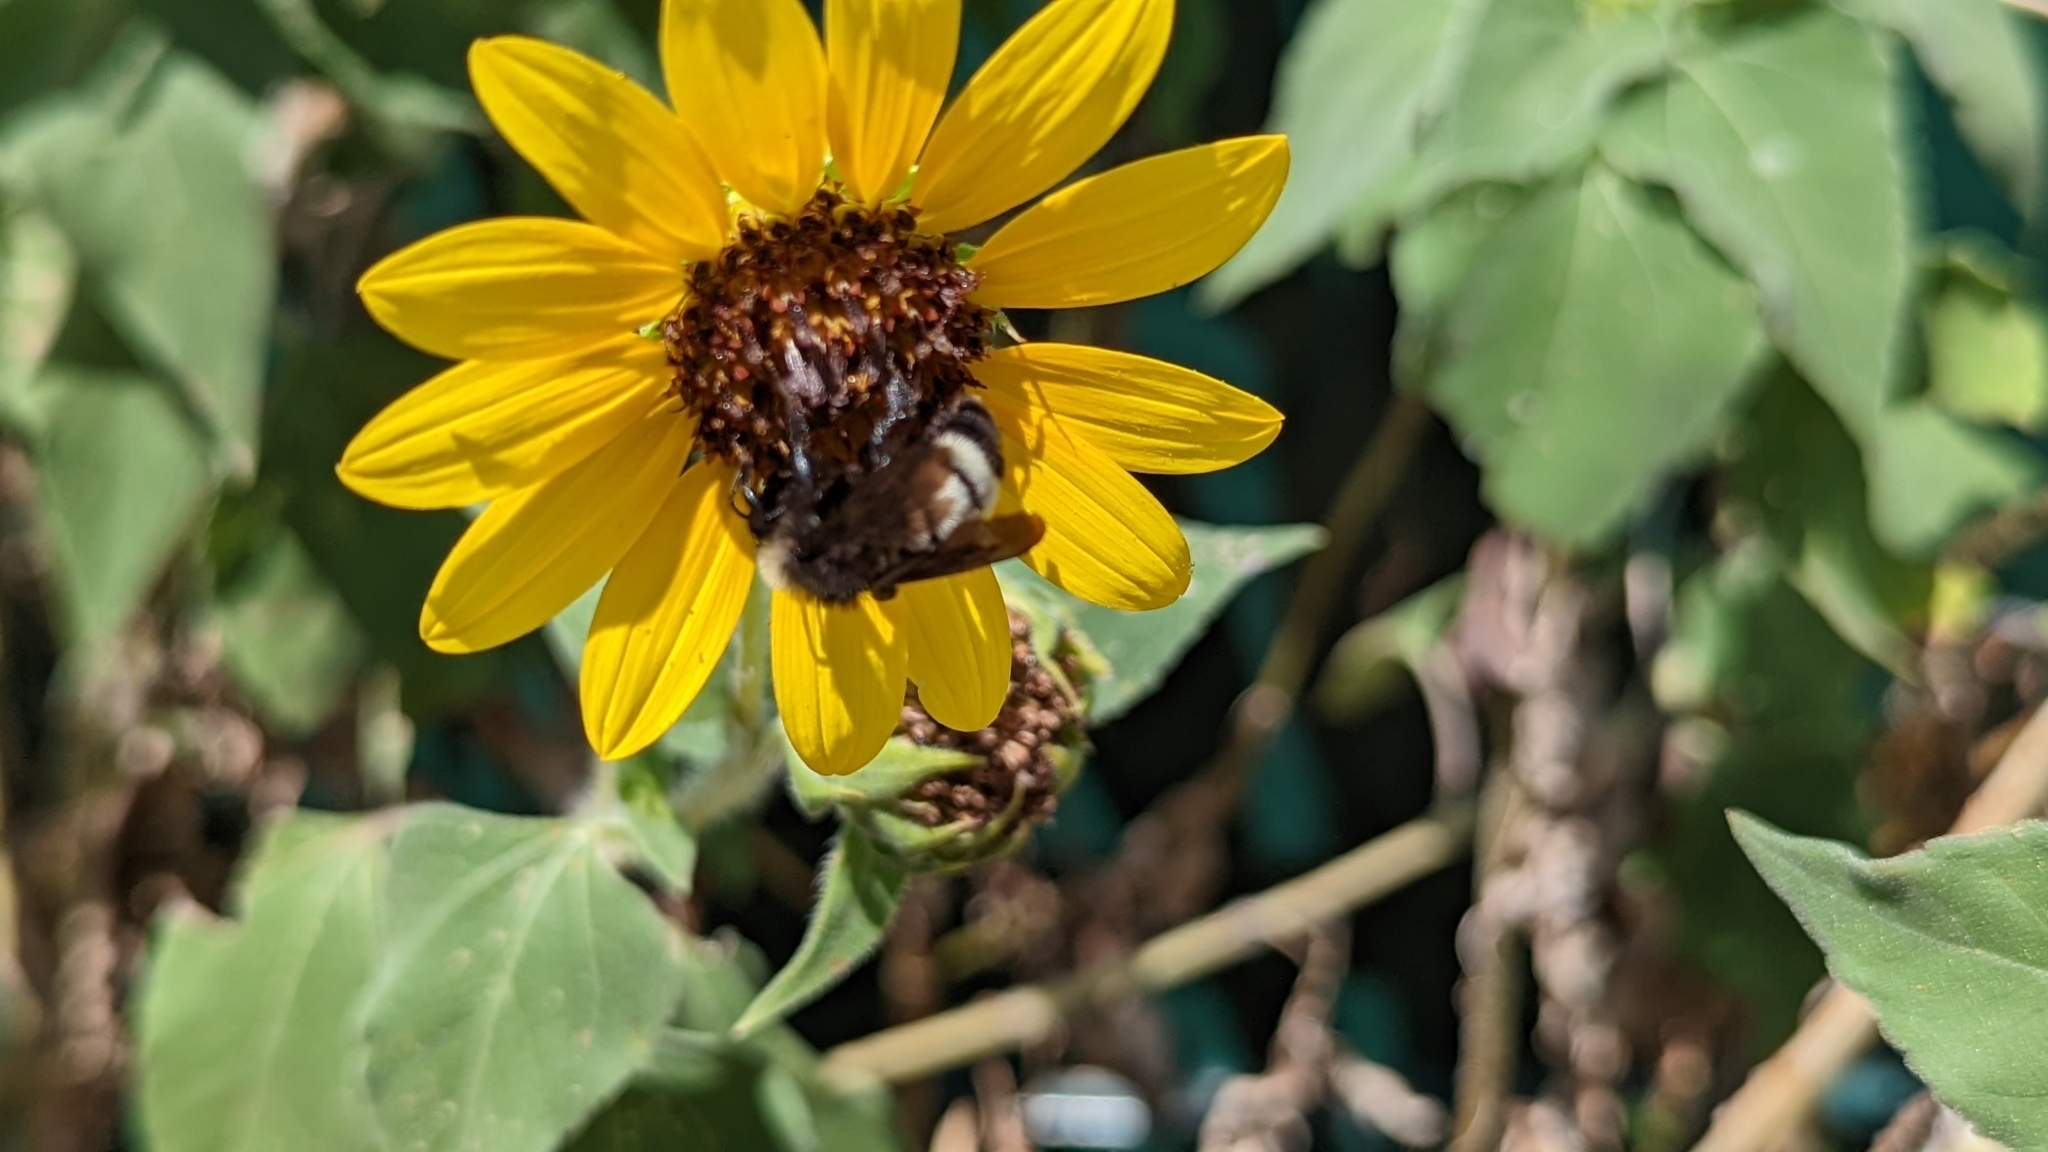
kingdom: Animalia
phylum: Arthropoda
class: Insecta
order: Hymenoptera
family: Apidae
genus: Bombus
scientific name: Bombus pensylvanicus
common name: Bumble bee
